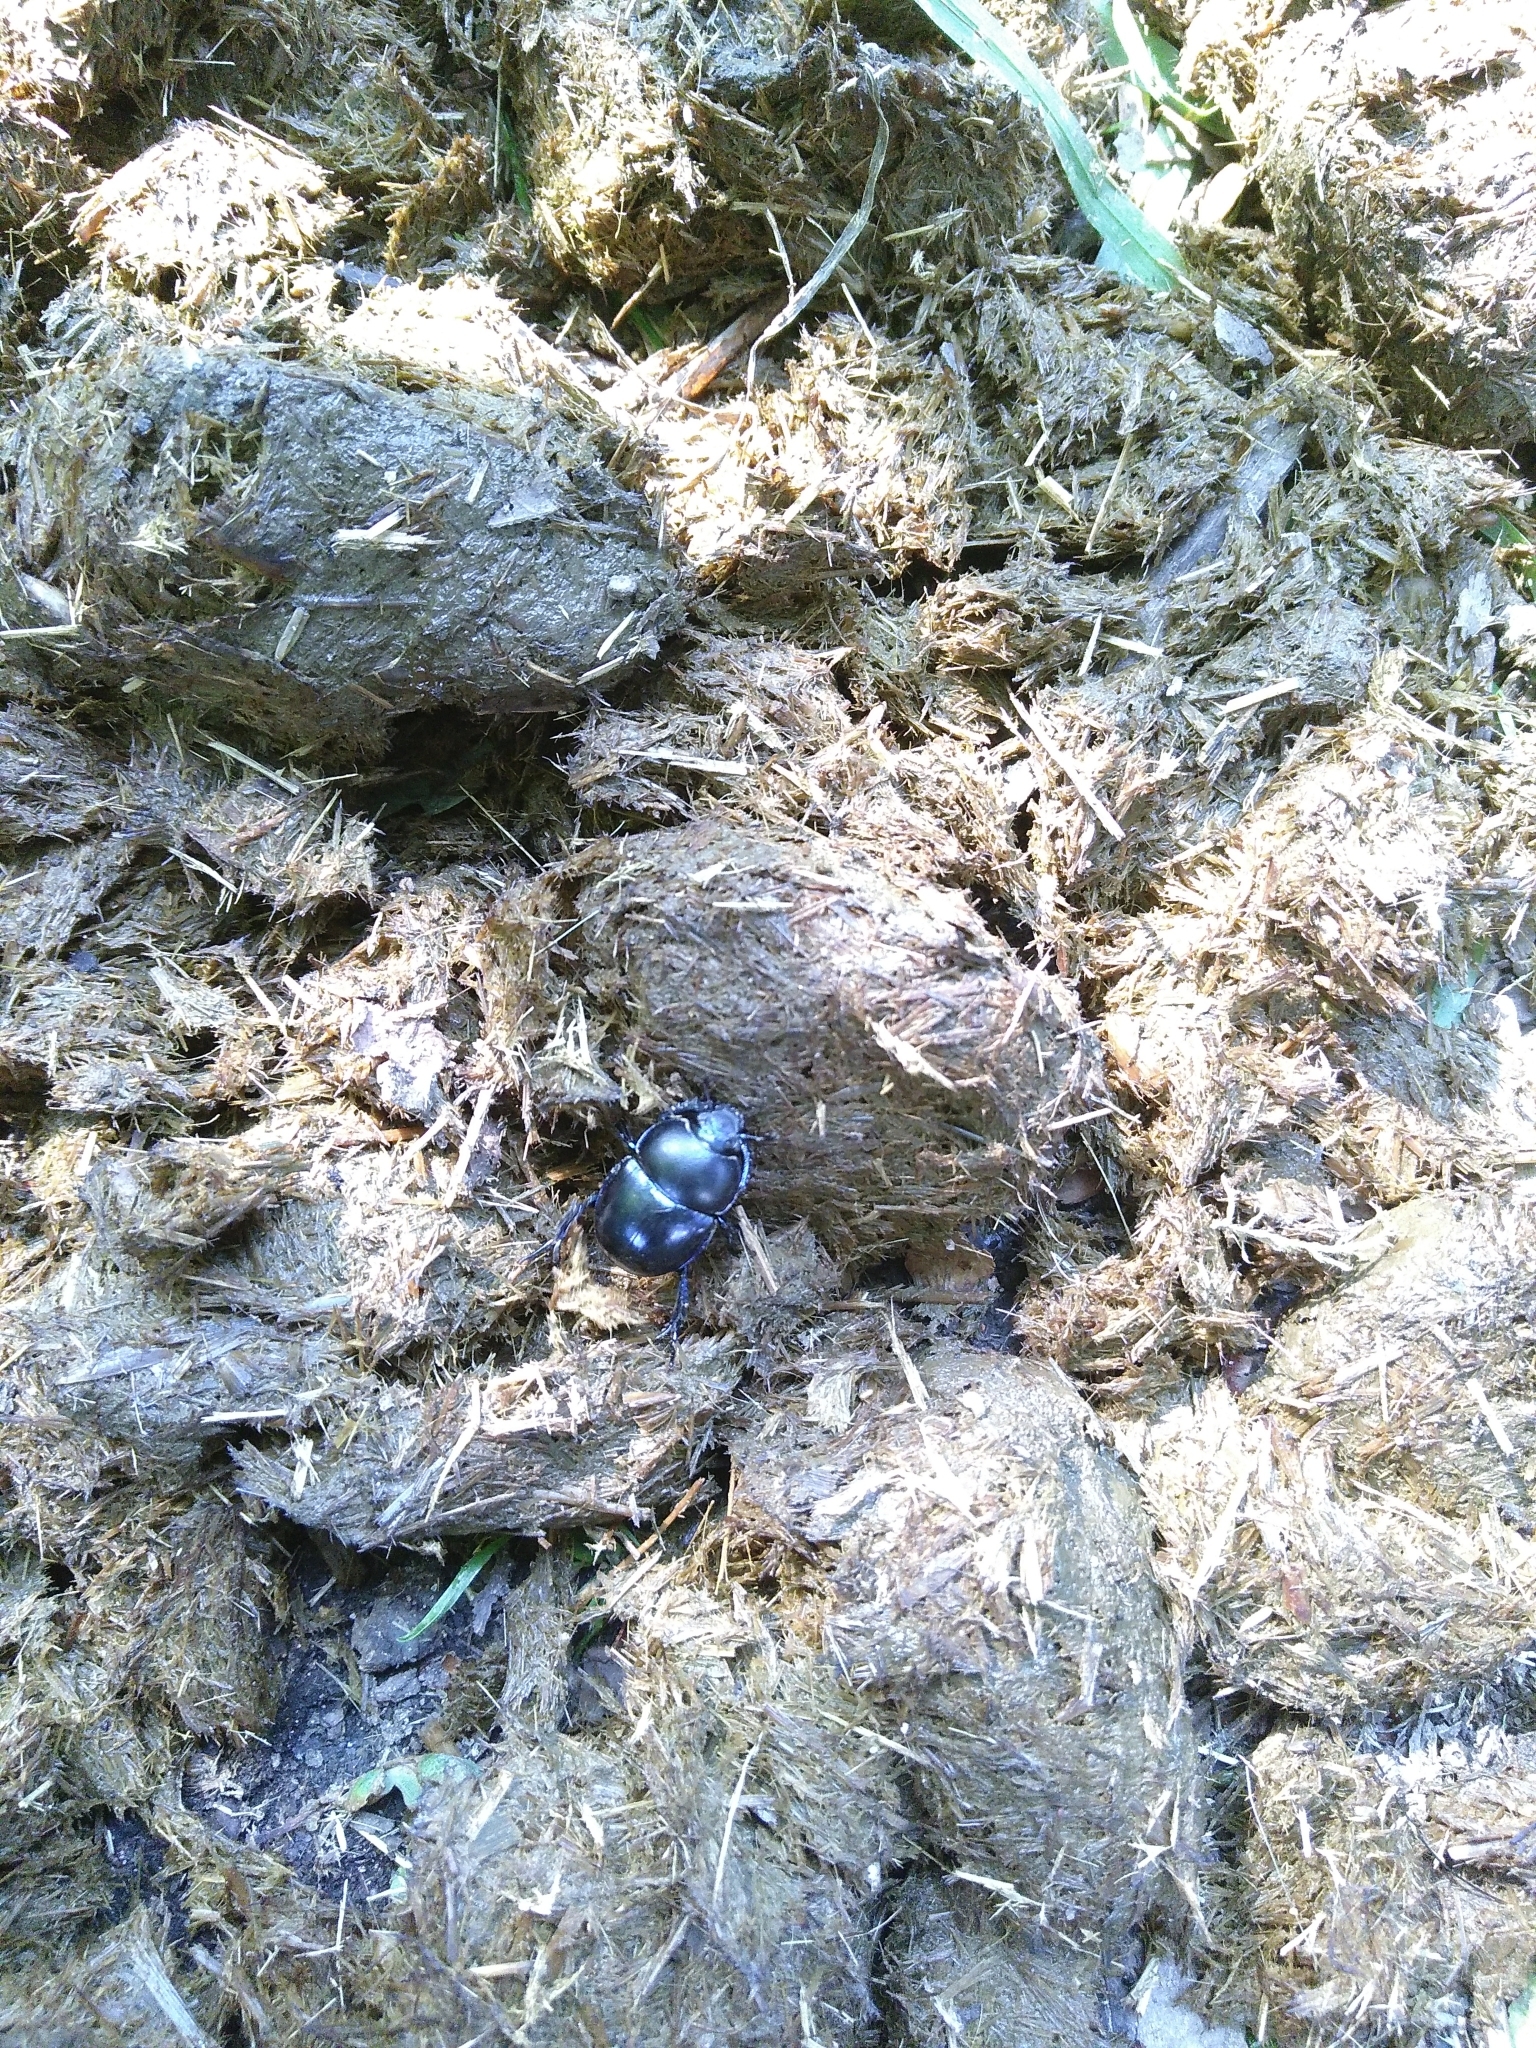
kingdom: Animalia
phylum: Arthropoda
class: Insecta
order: Coleoptera
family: Geotrupidae
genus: Trypocopris
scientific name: Trypocopris vernalis
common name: Spring dumbledor
